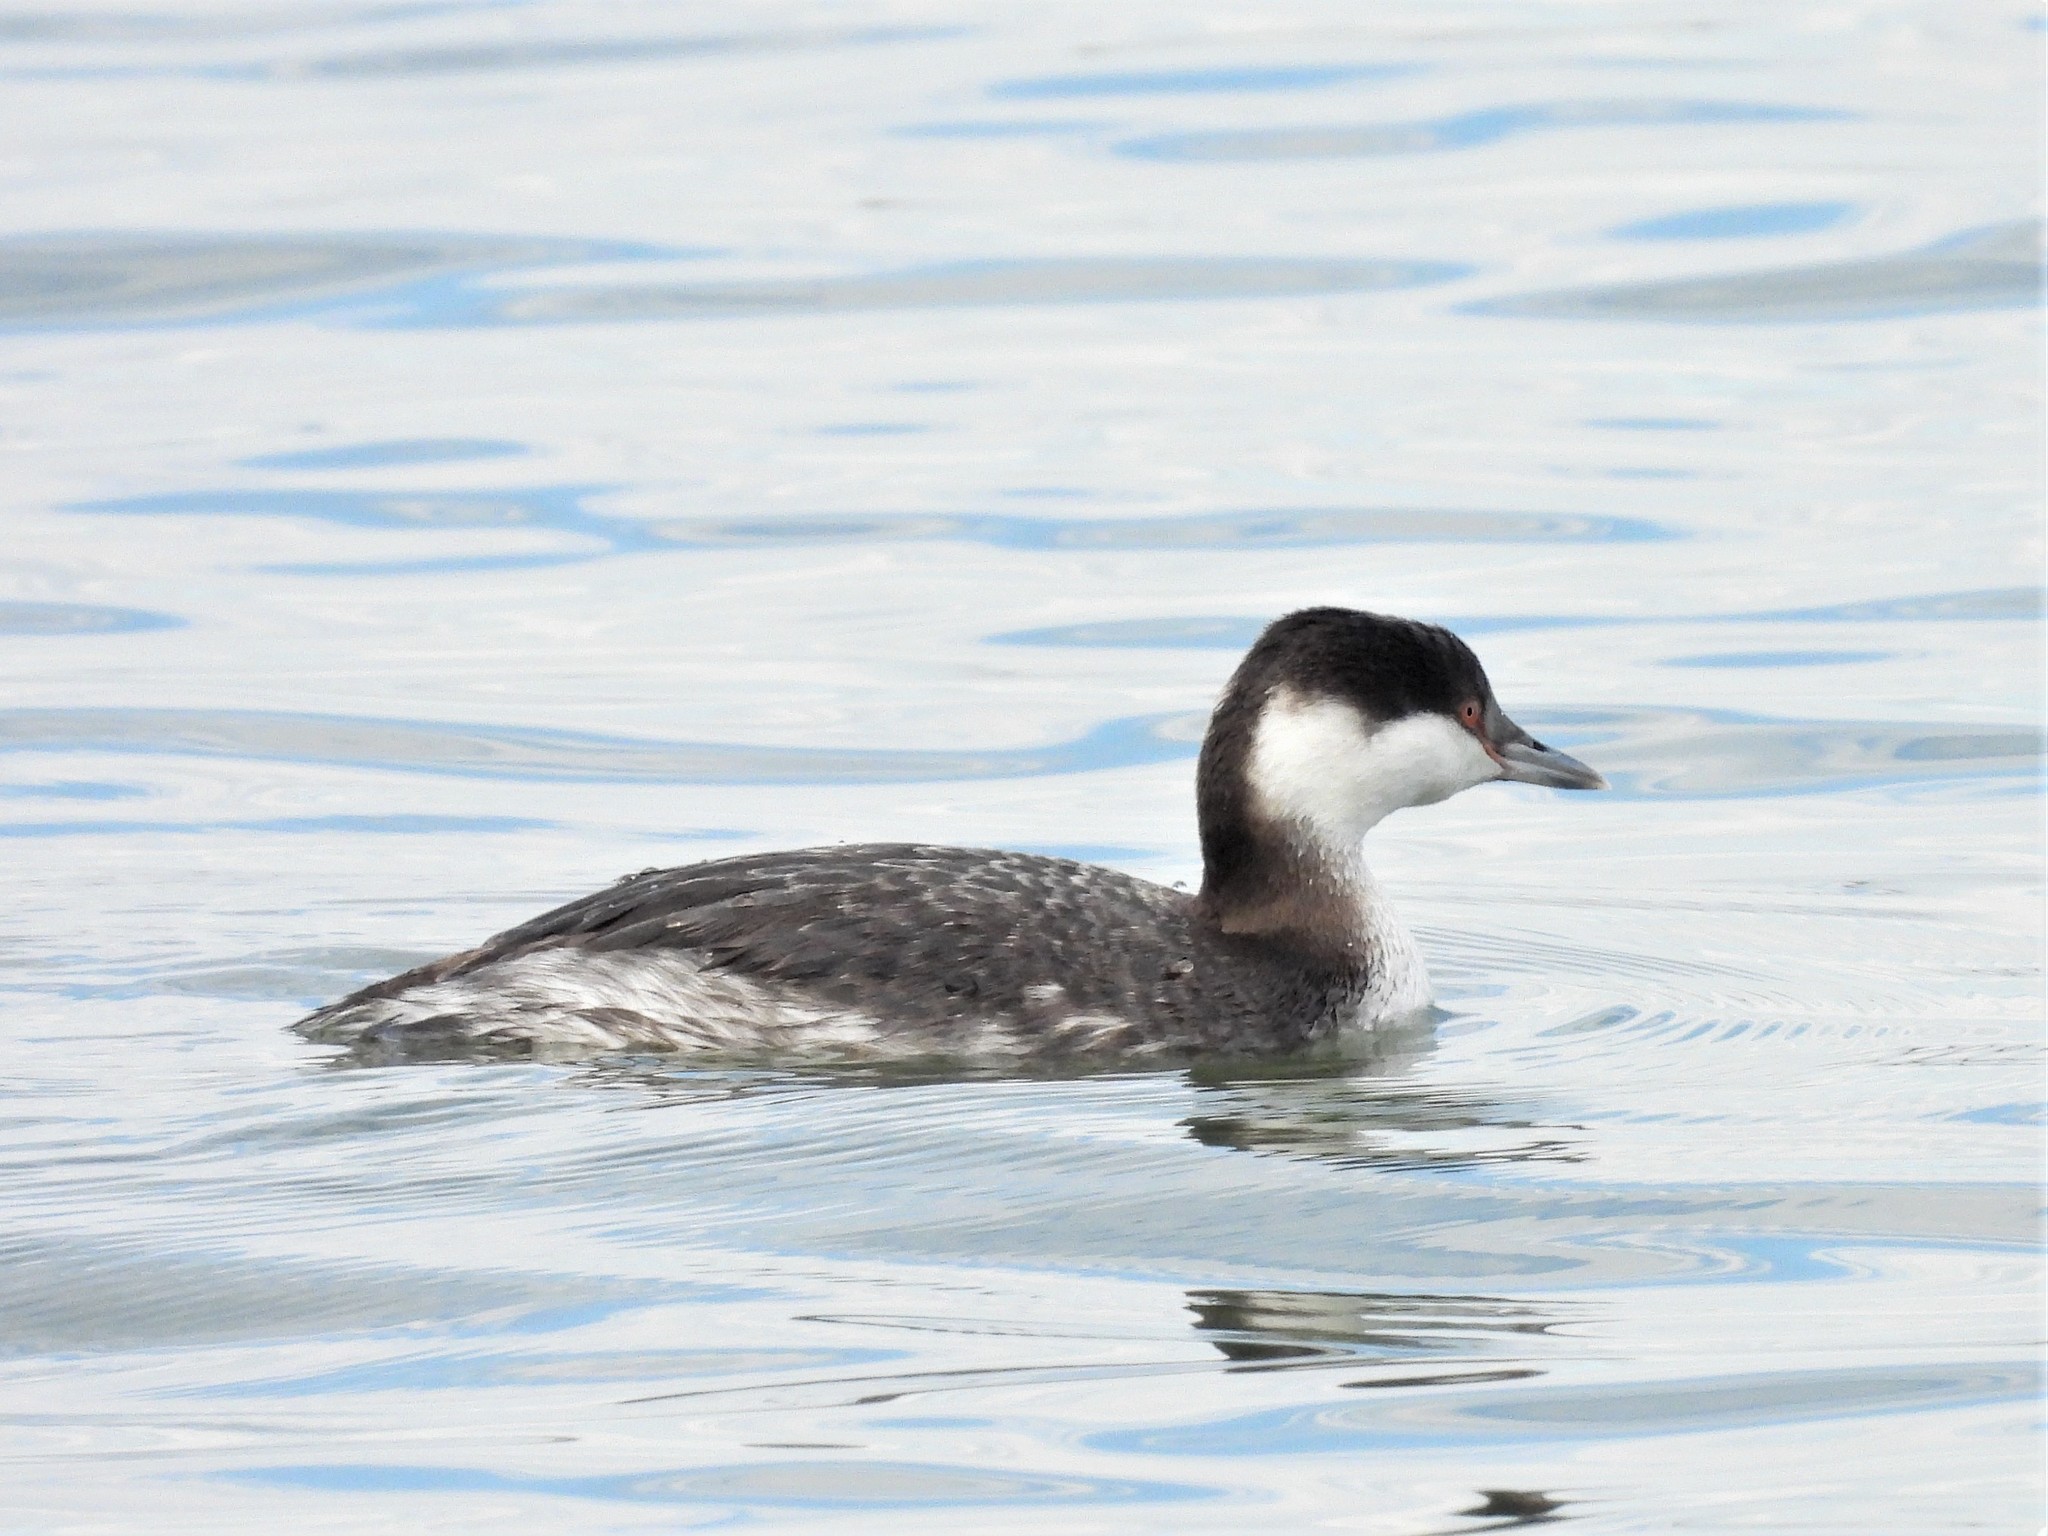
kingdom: Animalia
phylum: Chordata
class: Aves
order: Podicipediformes
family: Podicipedidae
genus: Podiceps
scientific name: Podiceps auritus
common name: Horned grebe
